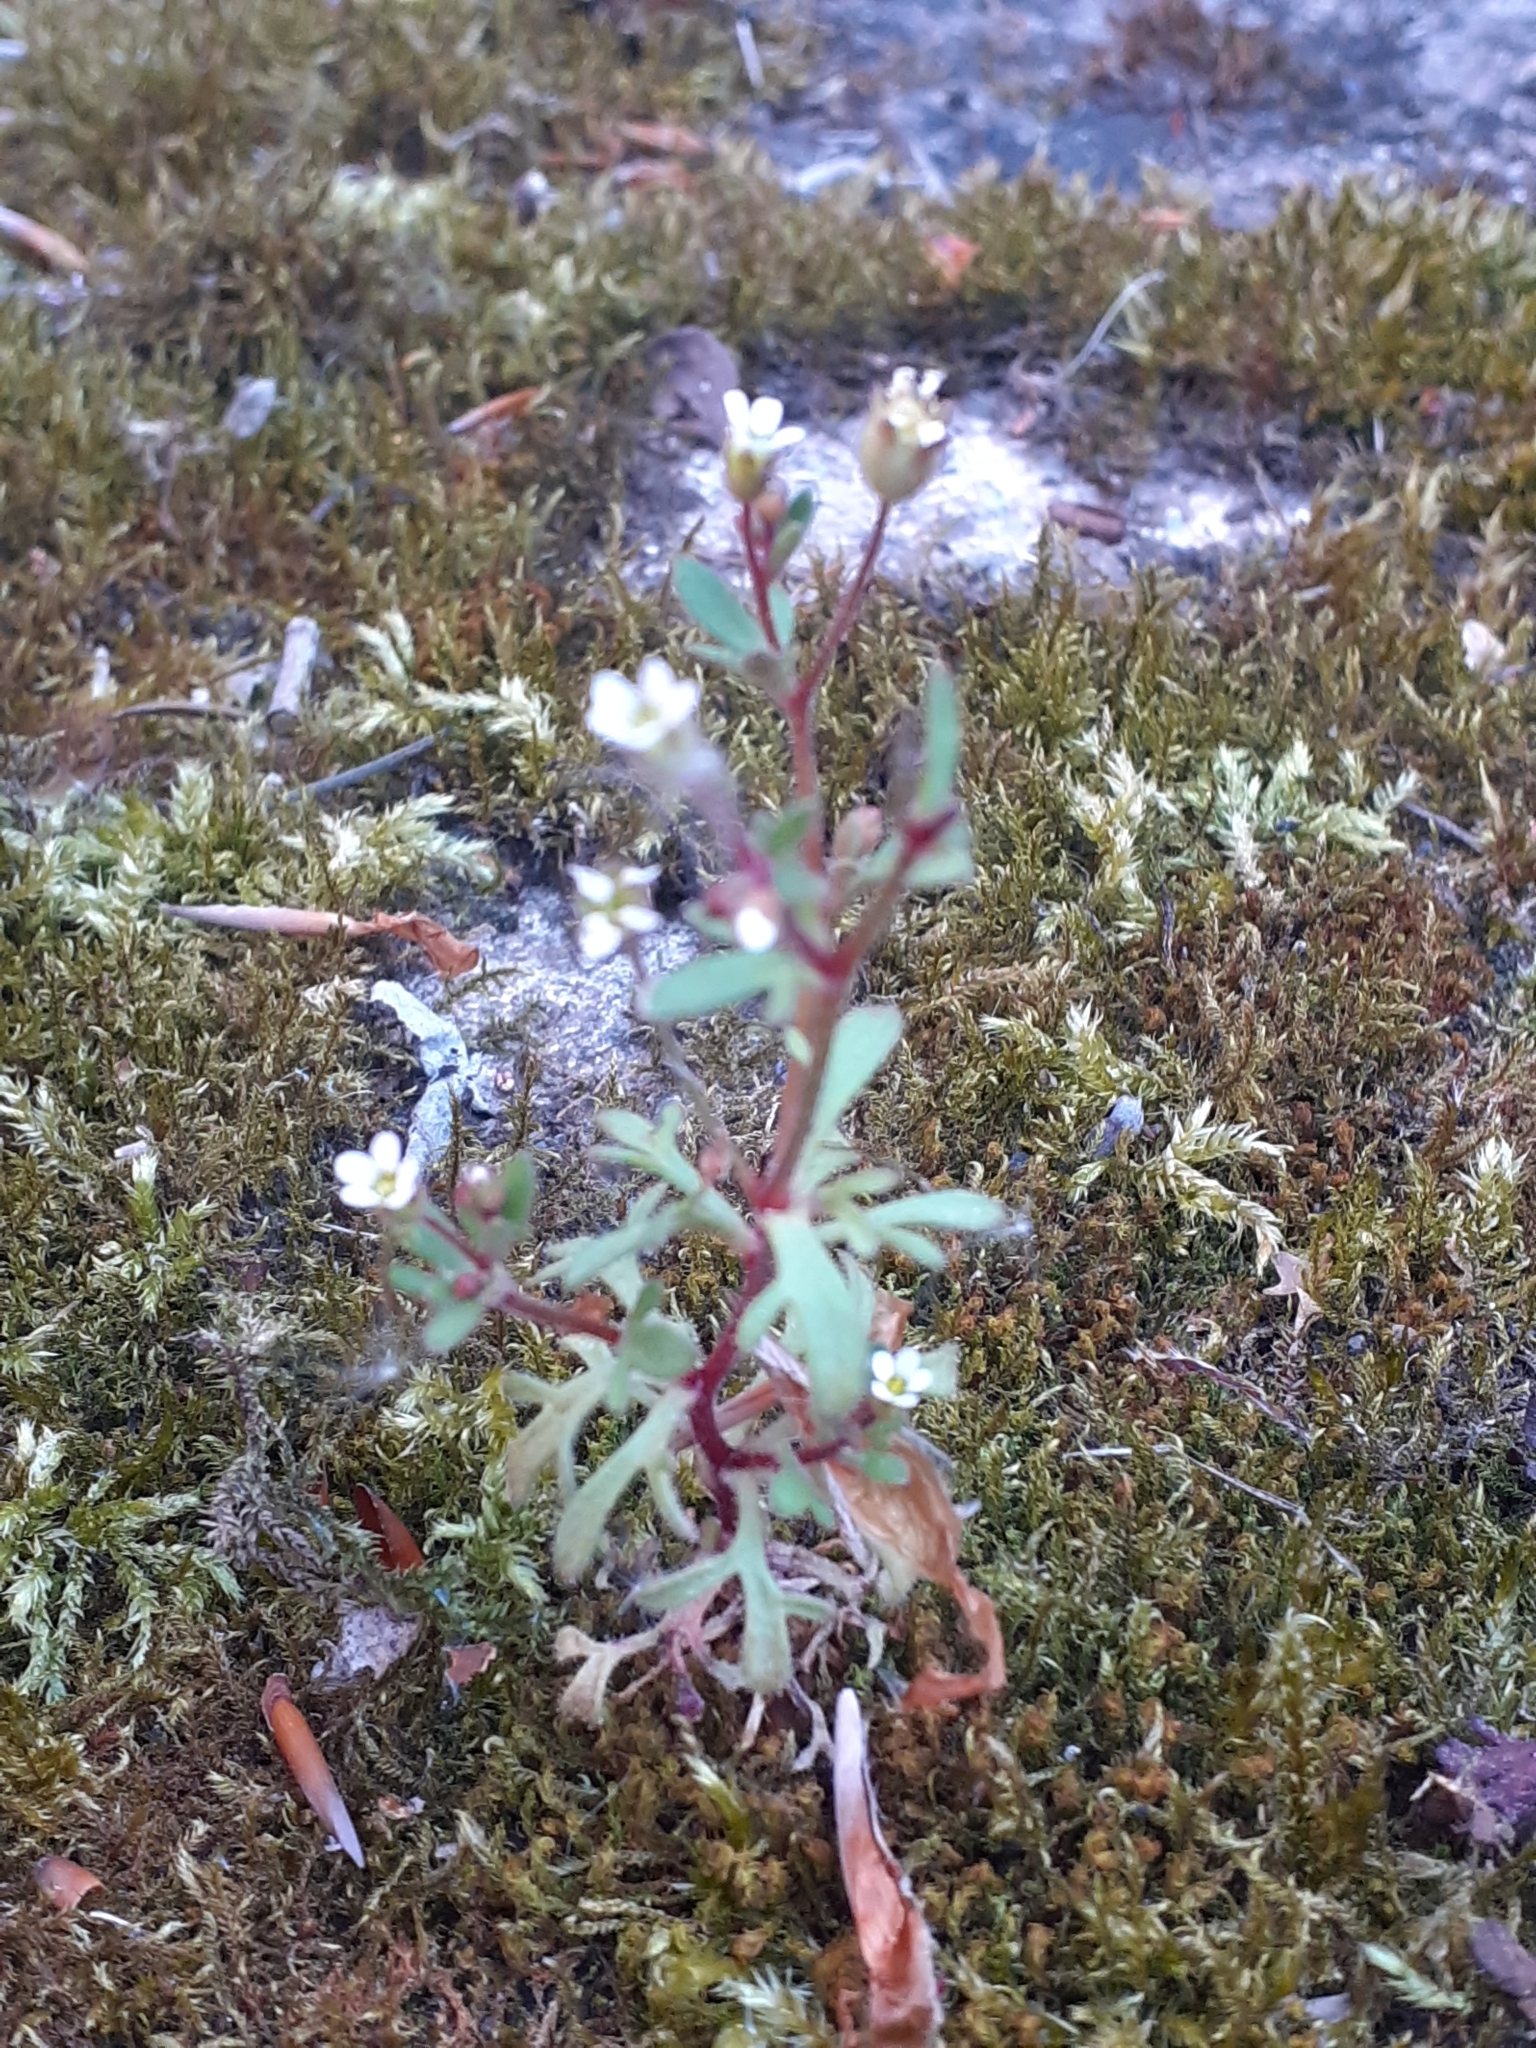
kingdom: Plantae
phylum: Tracheophyta
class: Magnoliopsida
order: Saxifragales
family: Saxifragaceae
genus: Saxifraga
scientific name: Saxifraga tridactylites
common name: Rue-leaved saxifrage
